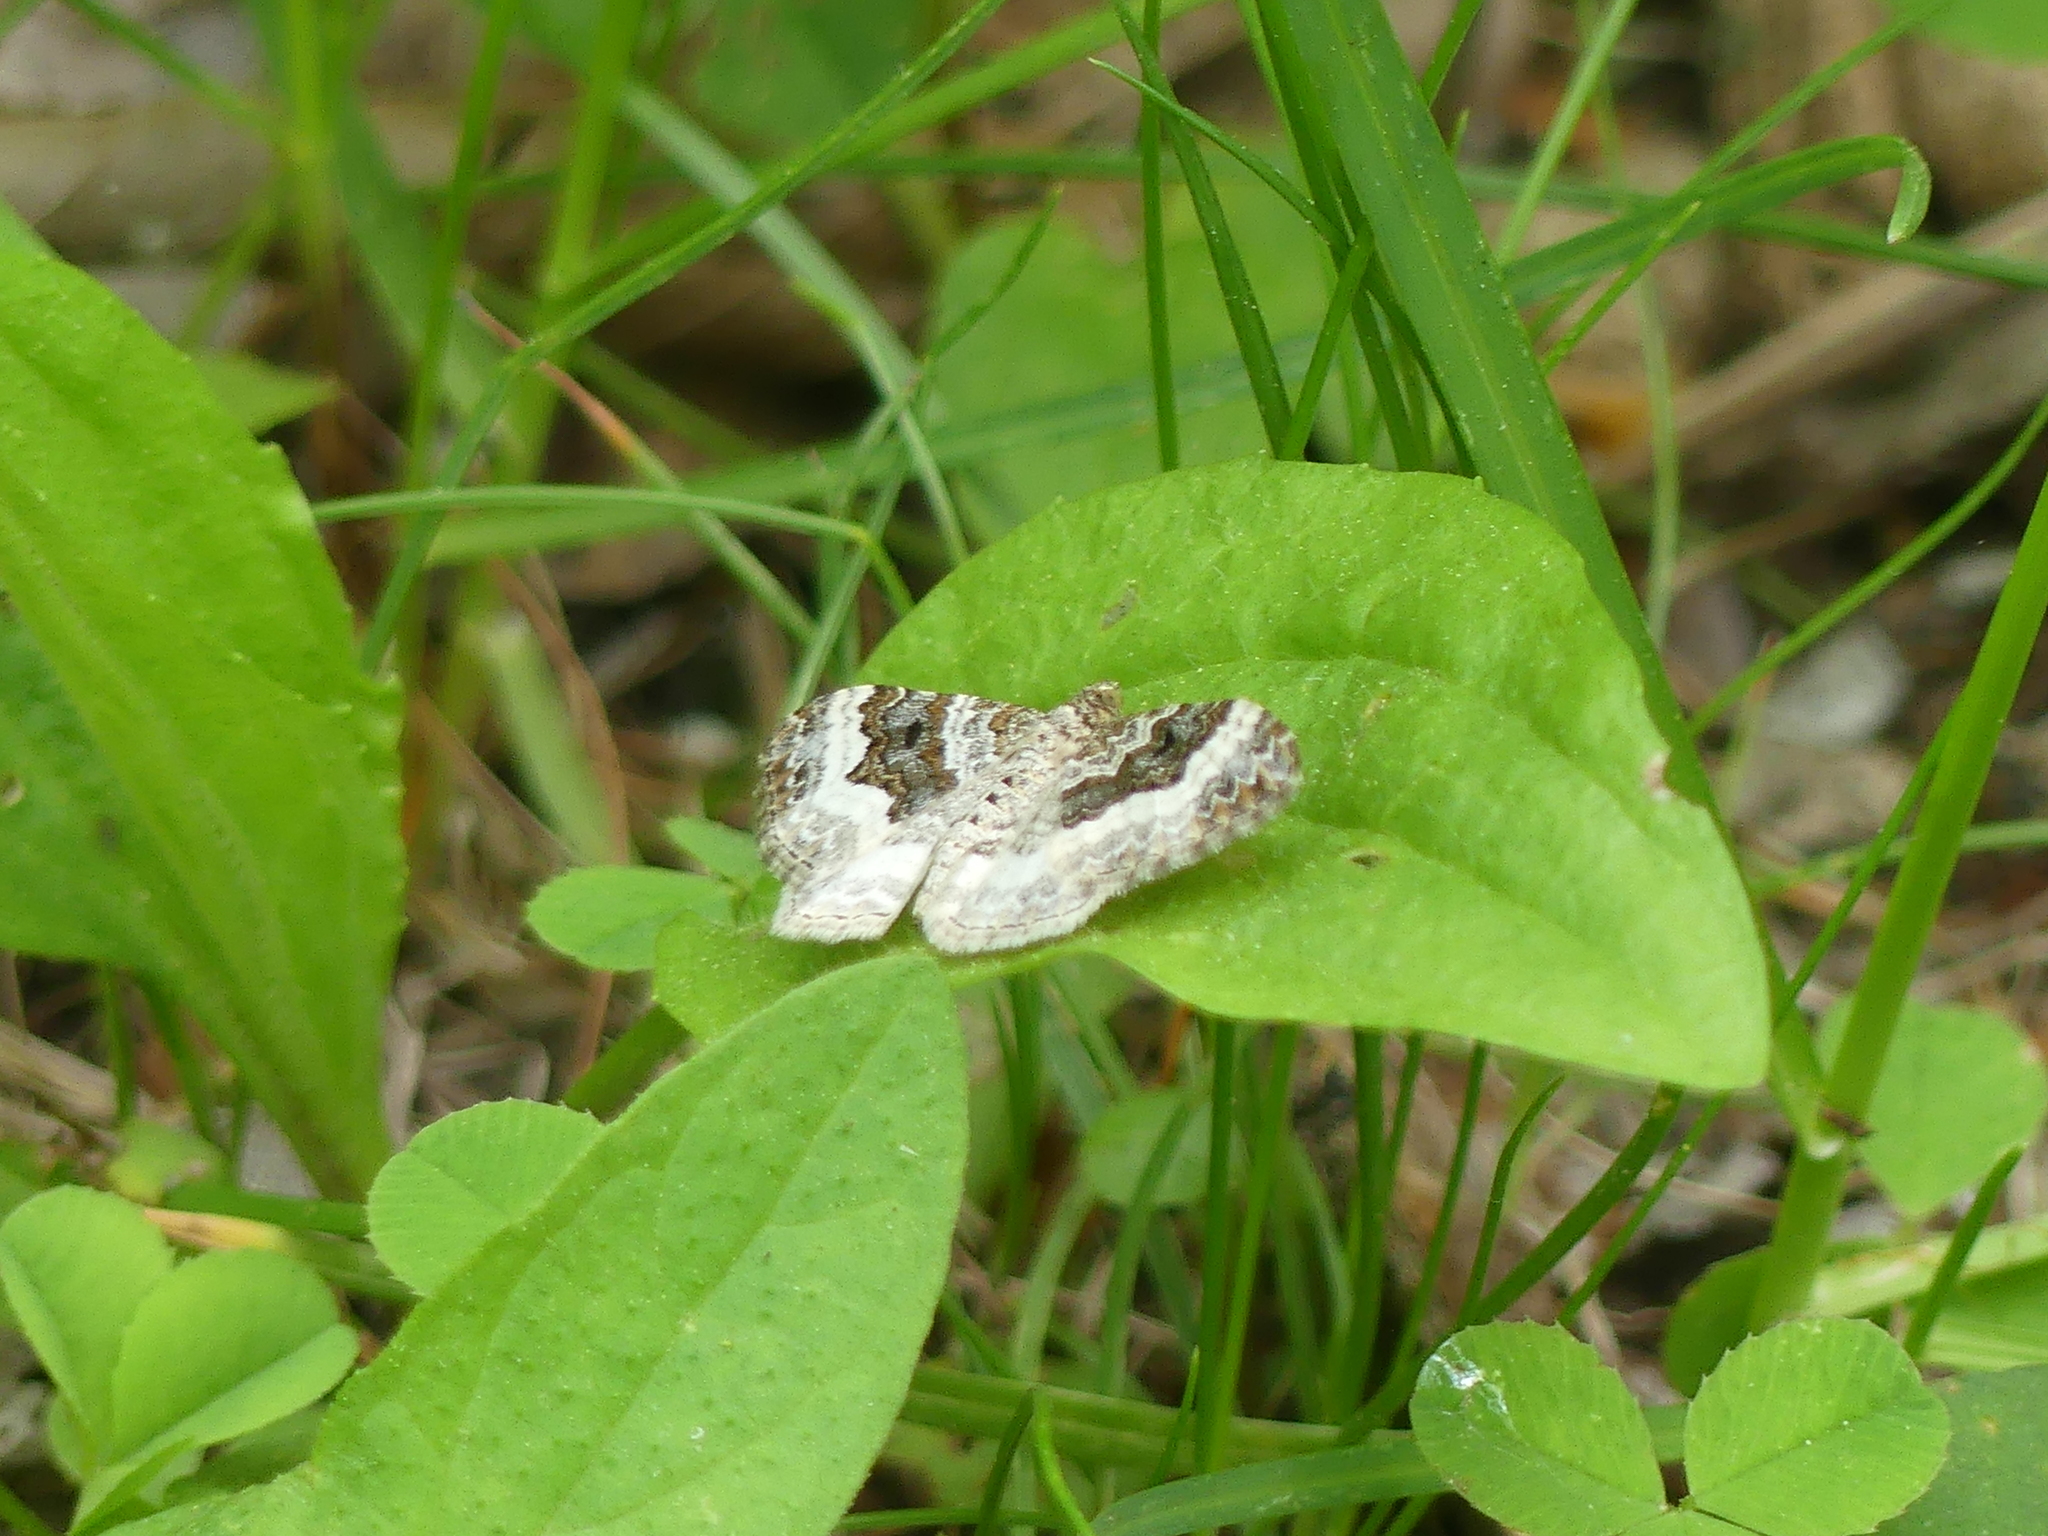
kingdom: Animalia
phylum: Arthropoda
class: Insecta
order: Lepidoptera
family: Geometridae
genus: Epirrhoe
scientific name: Epirrhoe alternata
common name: Common carpet
